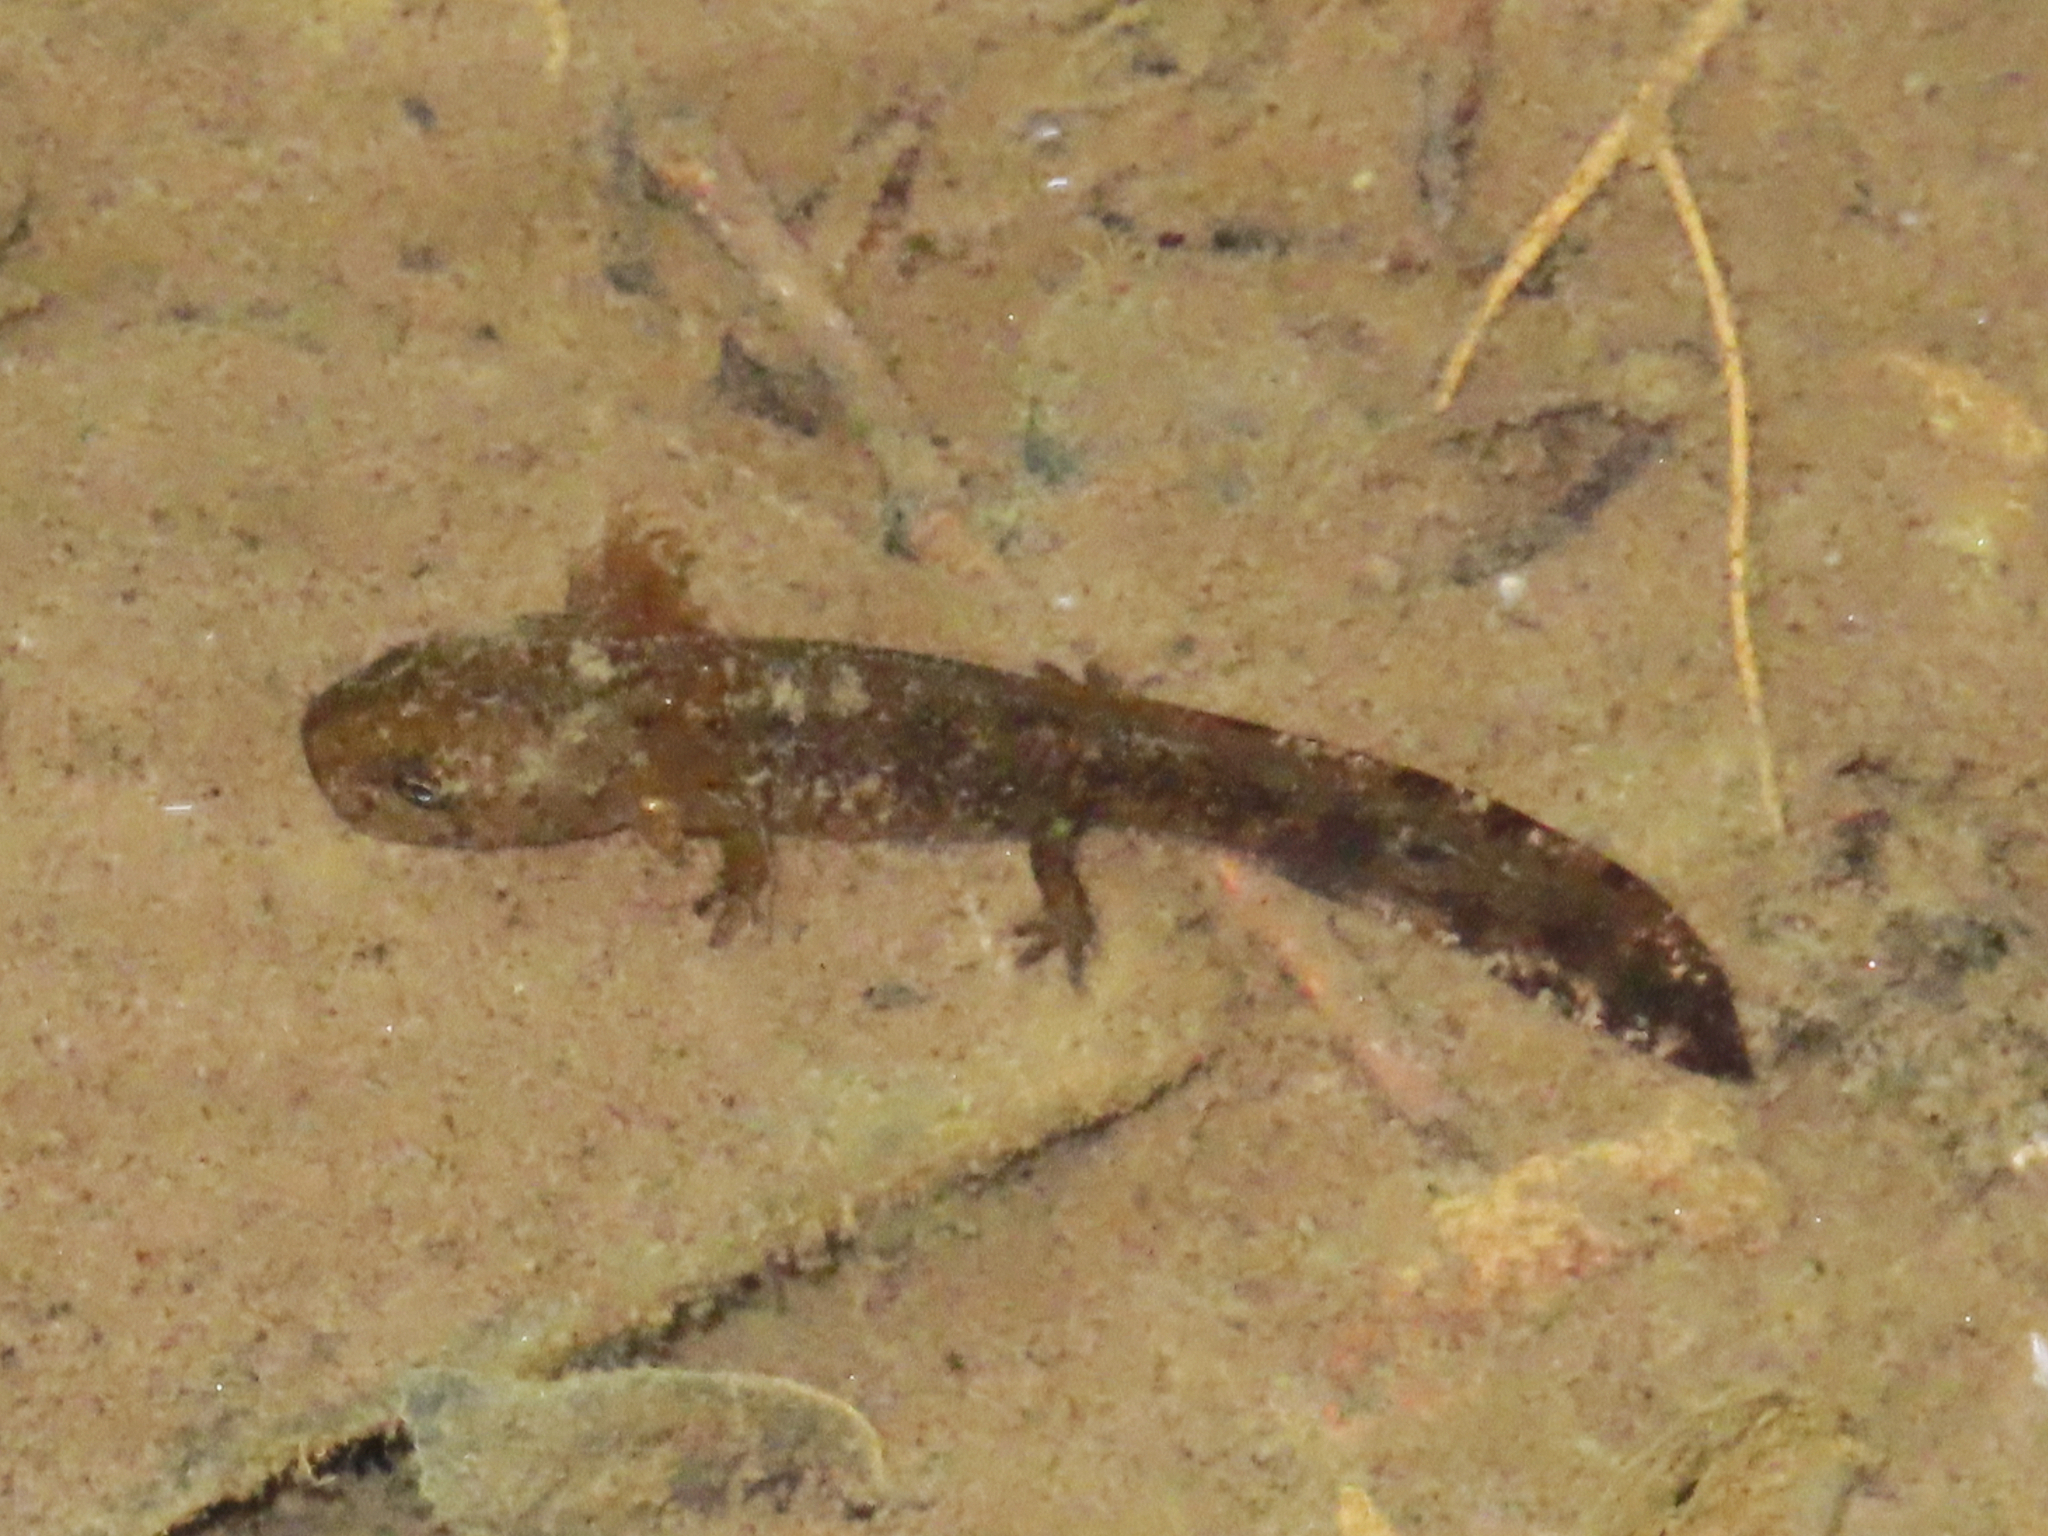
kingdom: Animalia
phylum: Chordata
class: Amphibia
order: Caudata
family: Salamandridae
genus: Salamandra
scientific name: Salamandra salamandra
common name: Fire salamander
